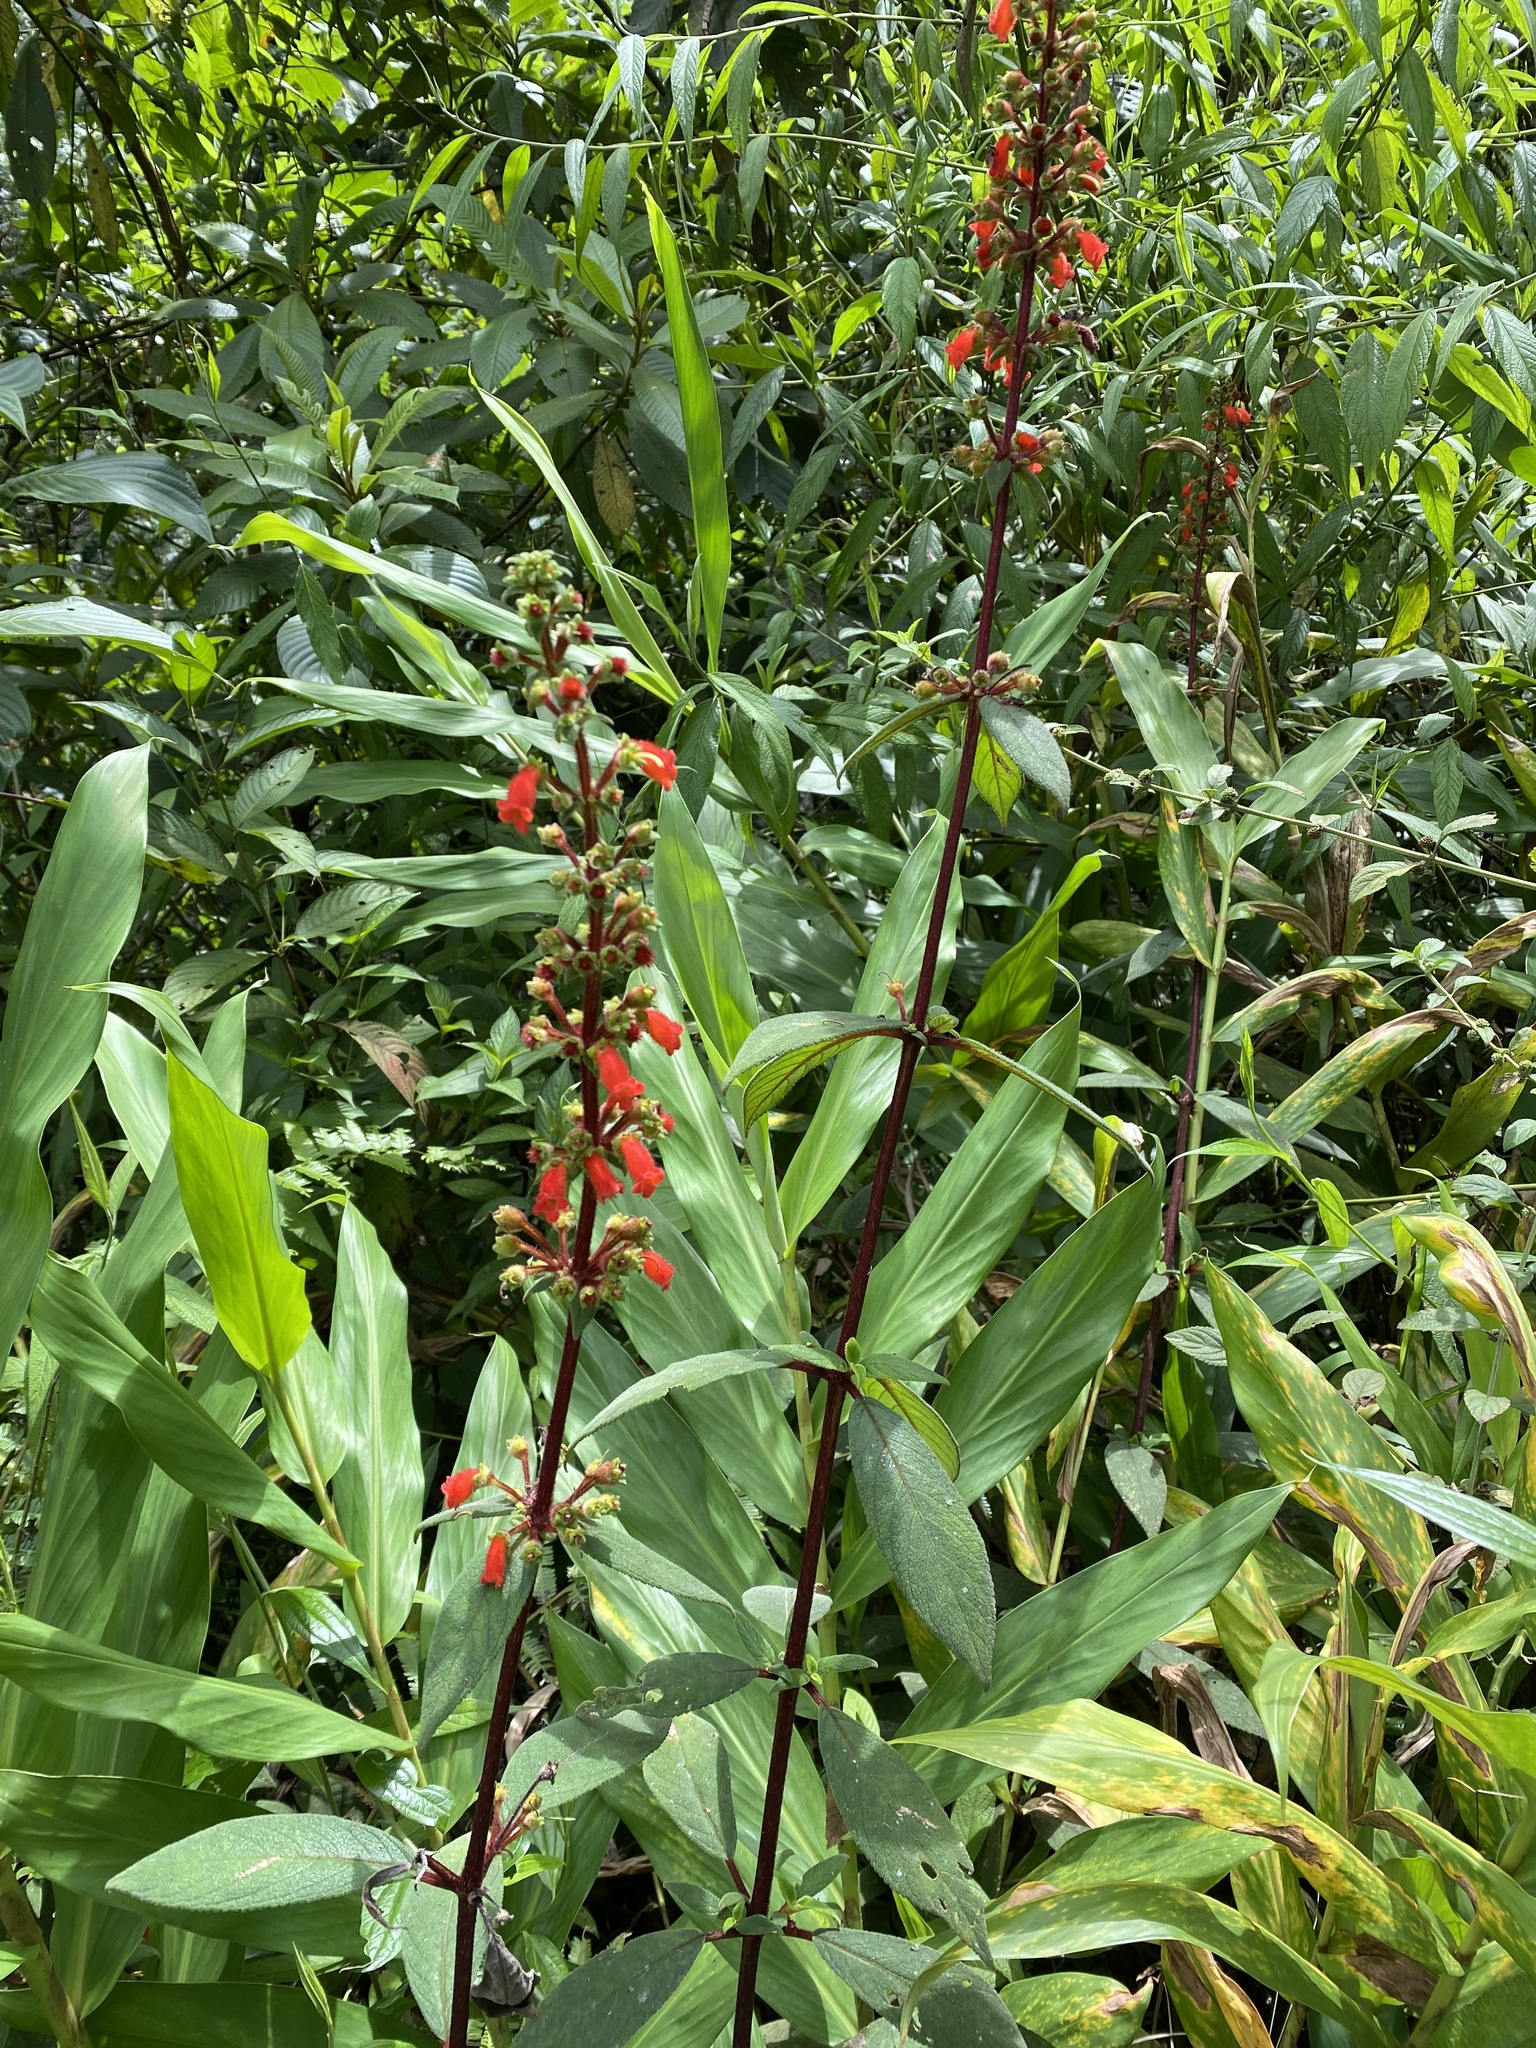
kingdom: Plantae
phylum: Tracheophyta
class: Magnoliopsida
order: Lamiales
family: Gesneriaceae
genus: Kohleria
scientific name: Kohleria spicata
